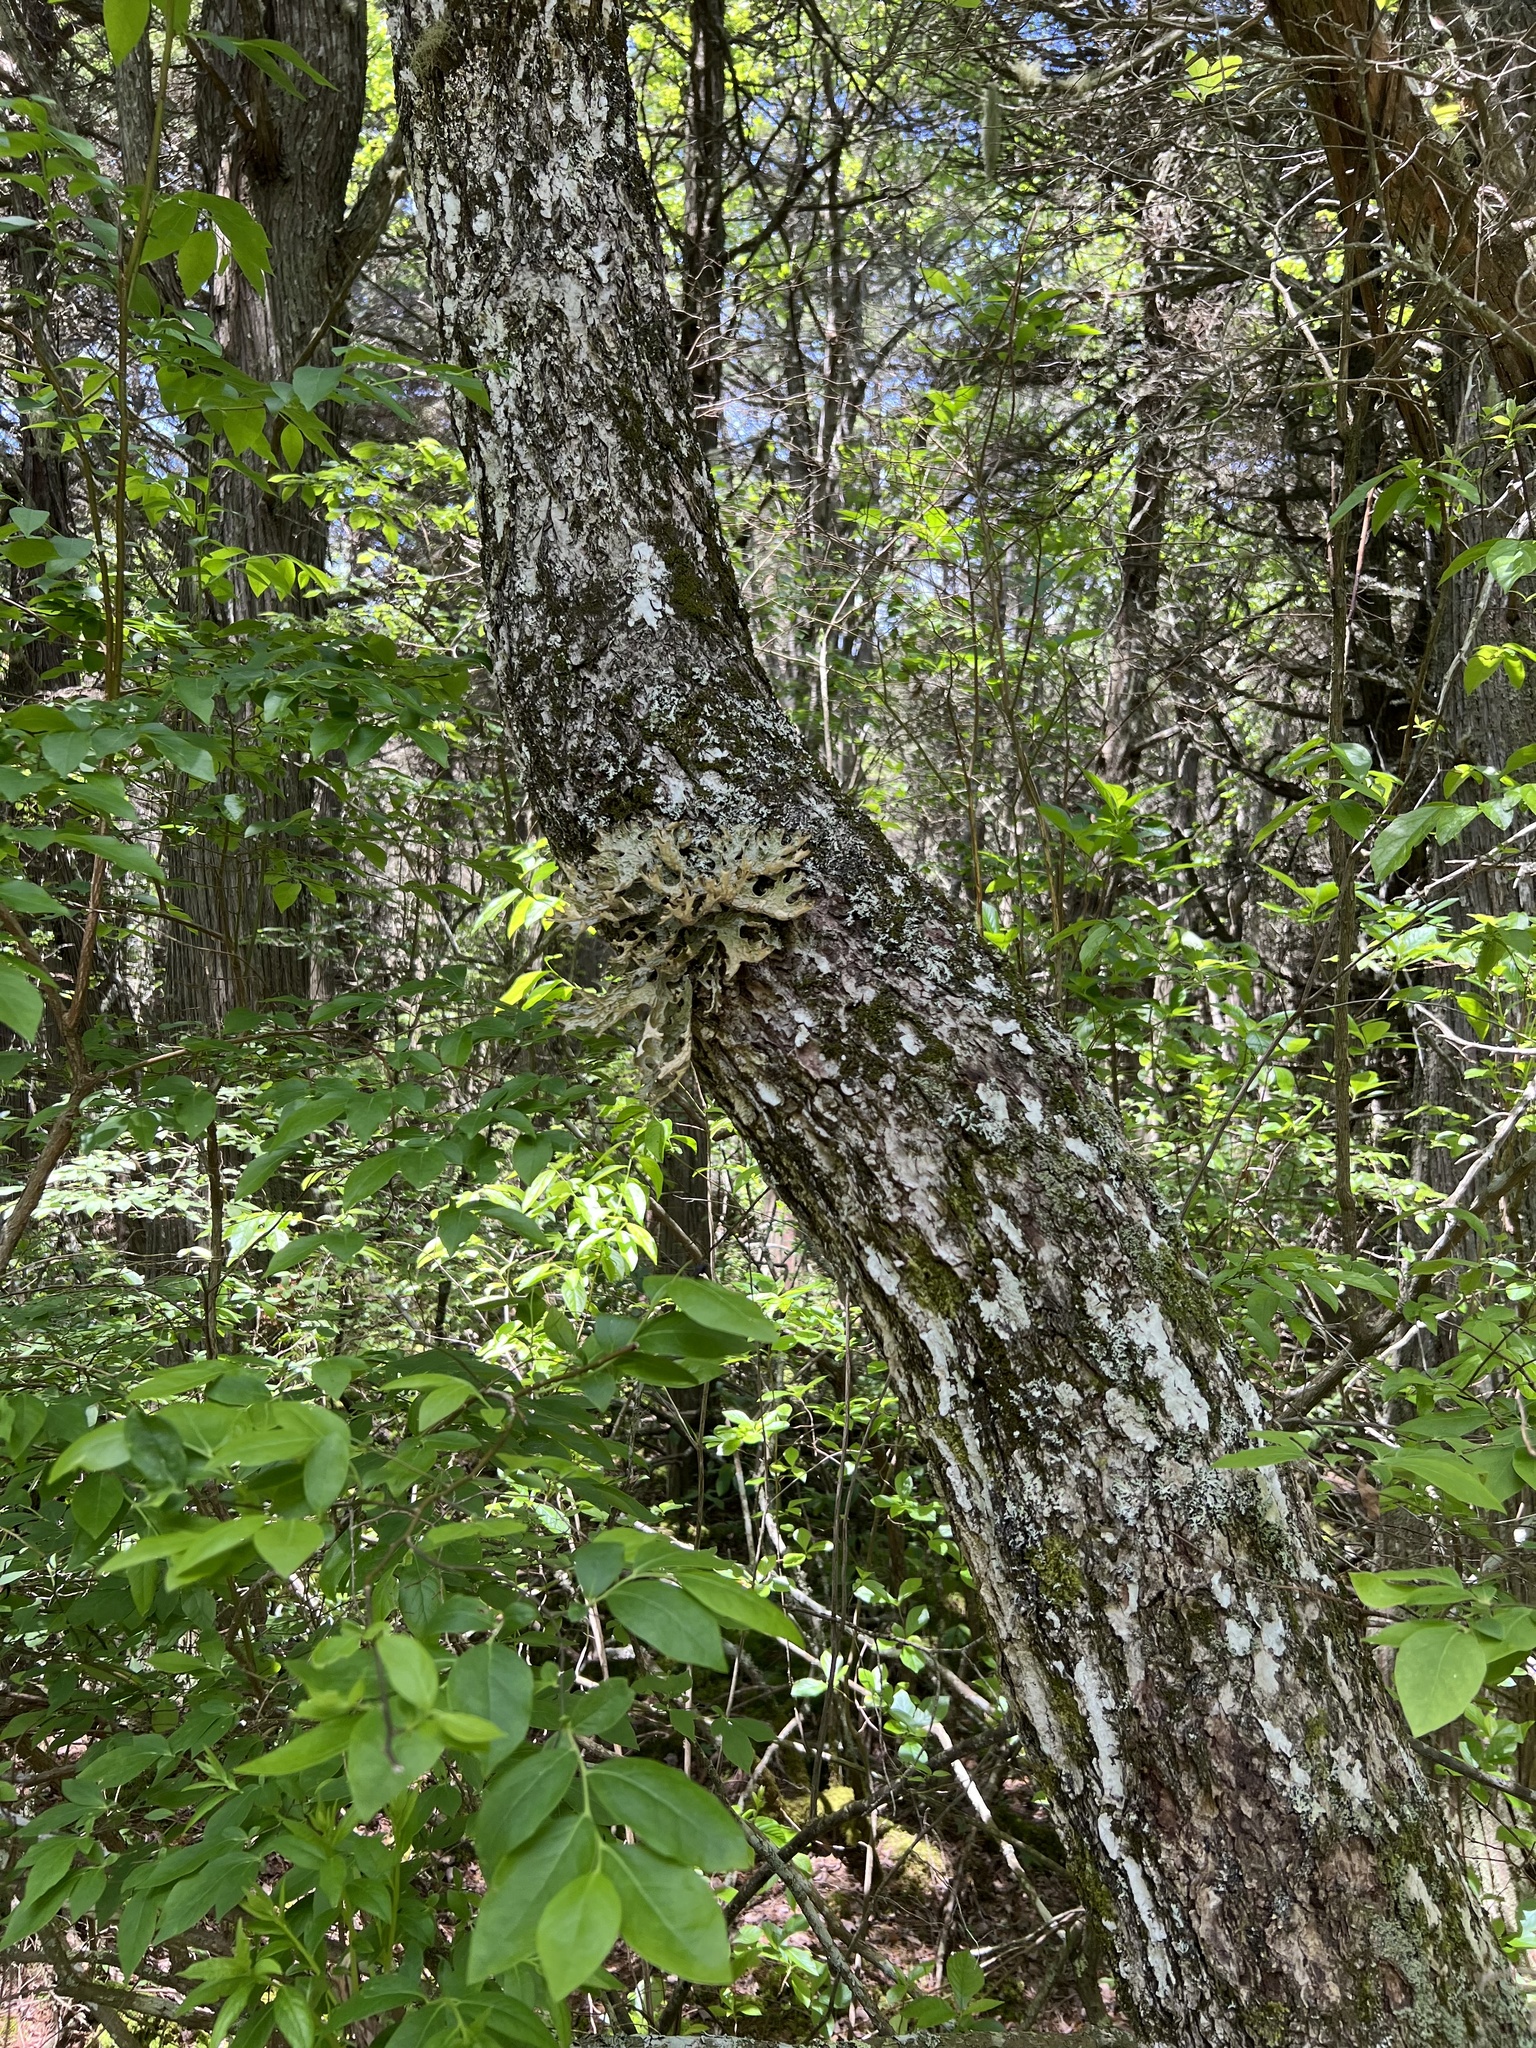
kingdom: Fungi
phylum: Ascomycota
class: Lecanoromycetes
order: Peltigerales
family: Lobariaceae
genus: Lobaria
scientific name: Lobaria pulmonaria
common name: Lungwort
